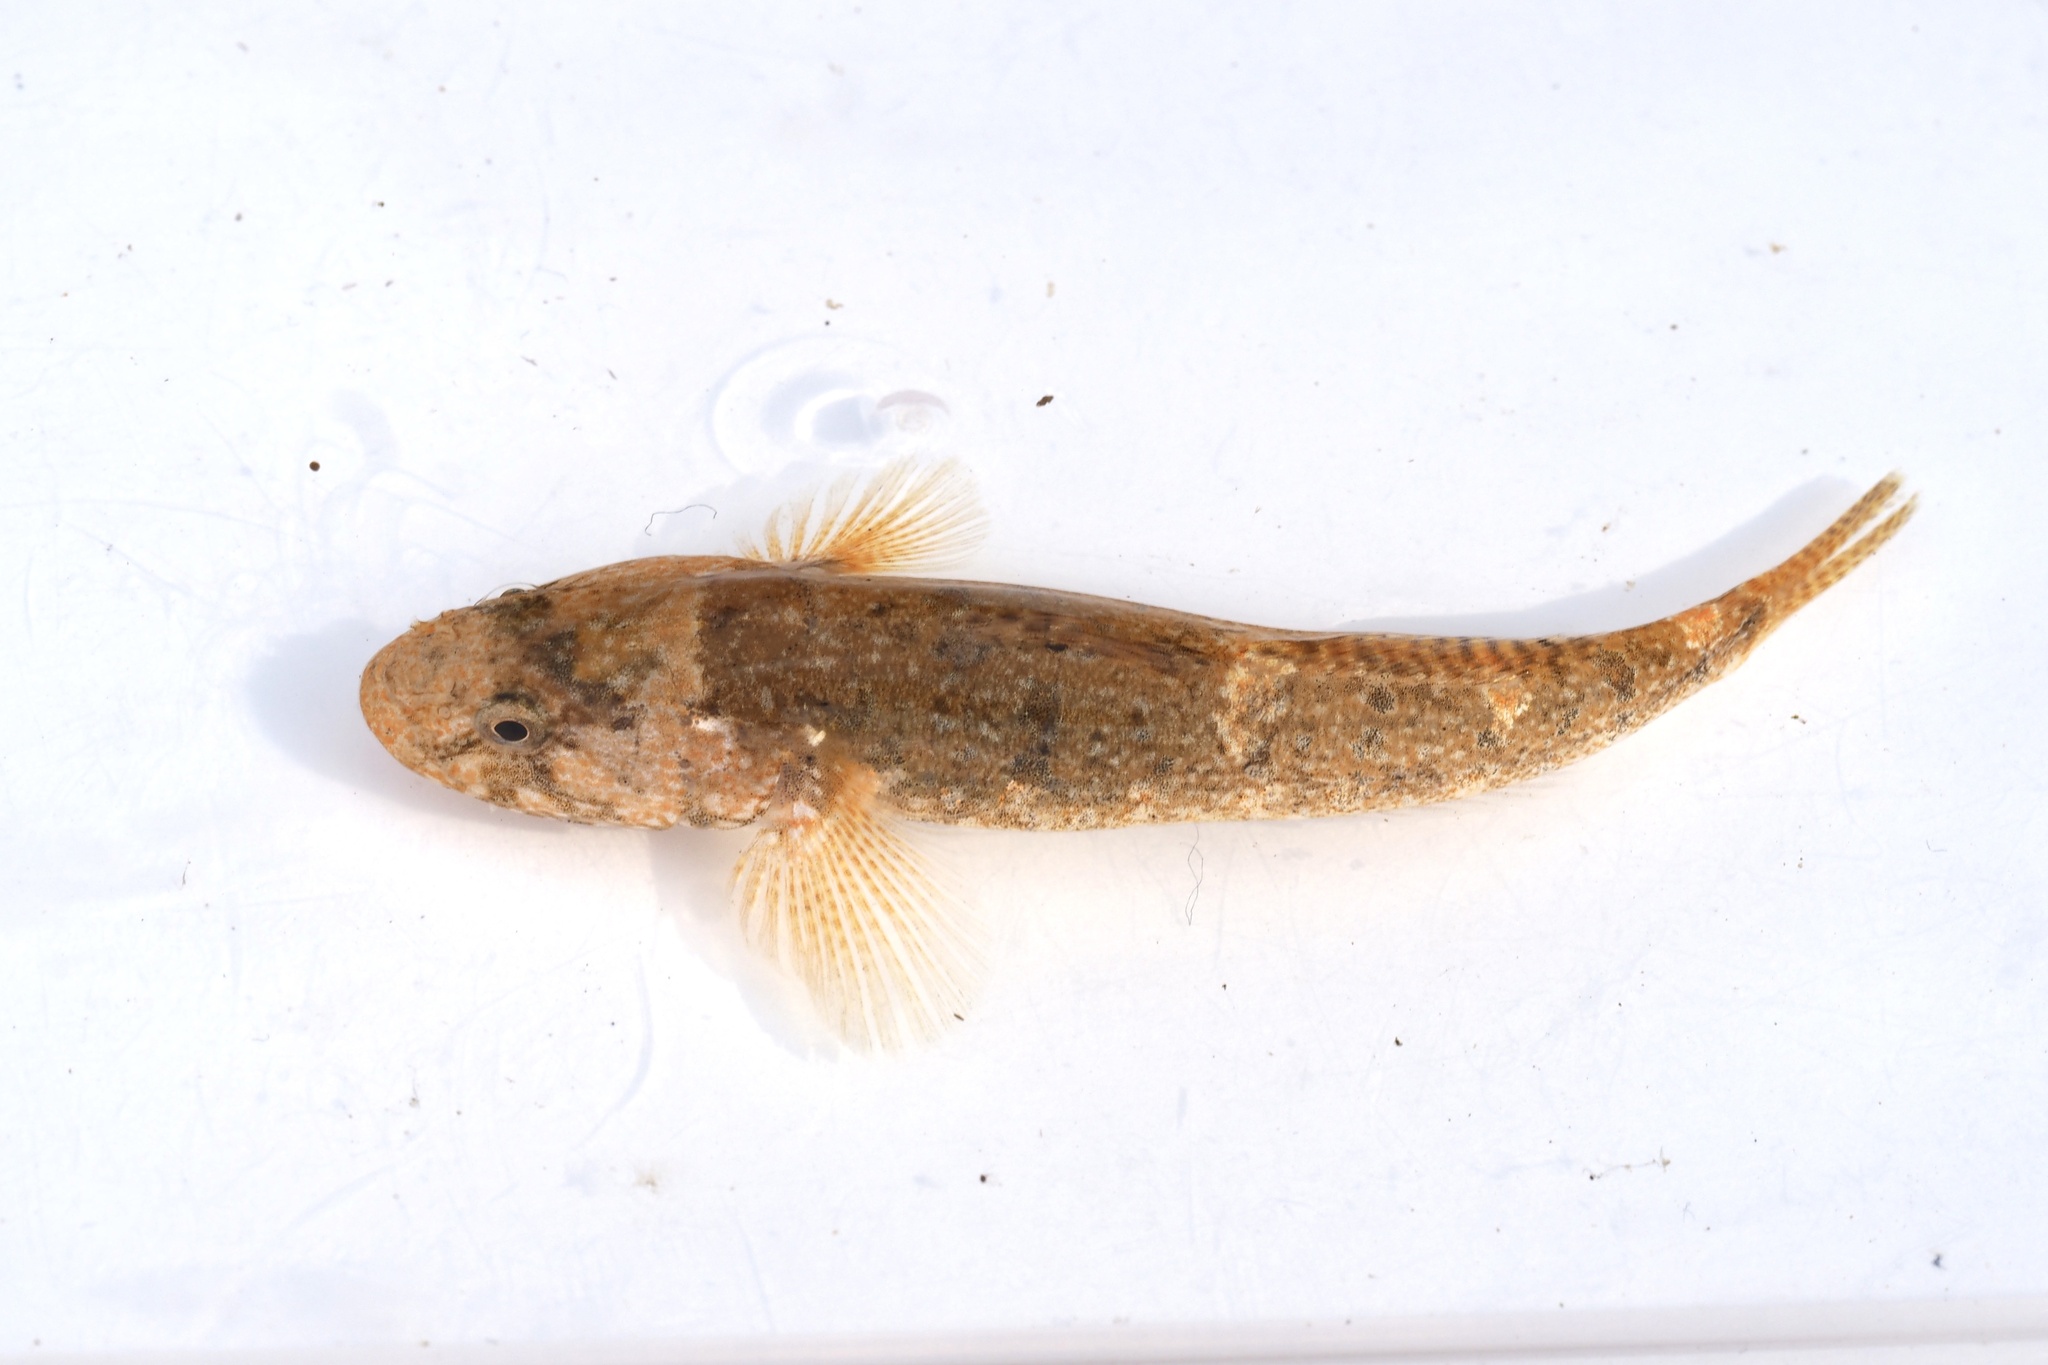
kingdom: Animalia
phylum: Chordata
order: Perciformes
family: Gobiidae
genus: Chaenogobius
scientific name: Chaenogobius annularis
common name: Forktongue goby
